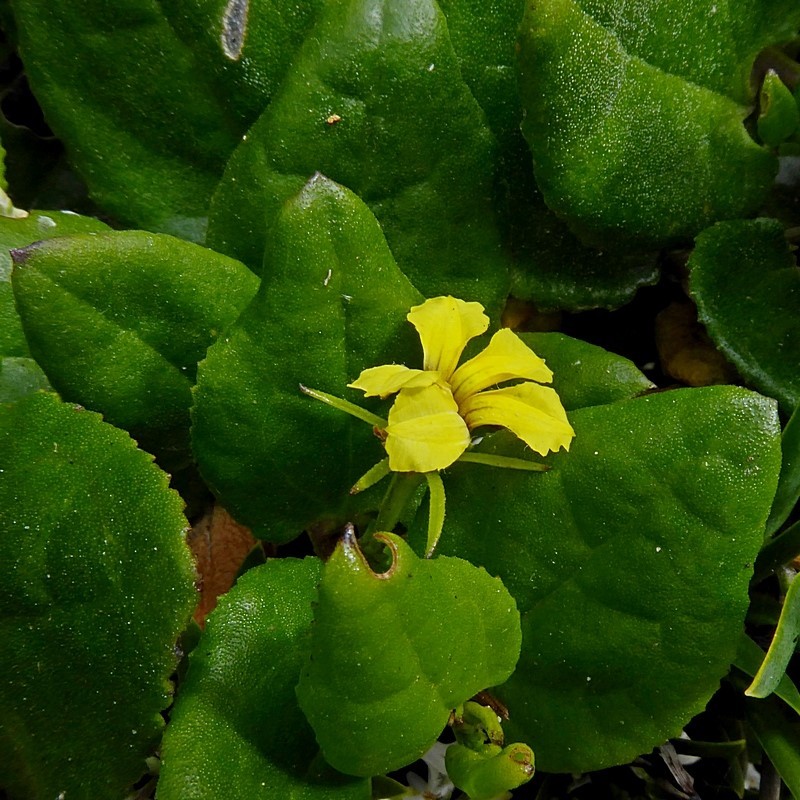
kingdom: Plantae
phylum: Tracheophyta
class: Magnoliopsida
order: Asterales
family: Goodeniaceae
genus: Goodenia
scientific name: Goodenia ovata
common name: Hop goodenia
